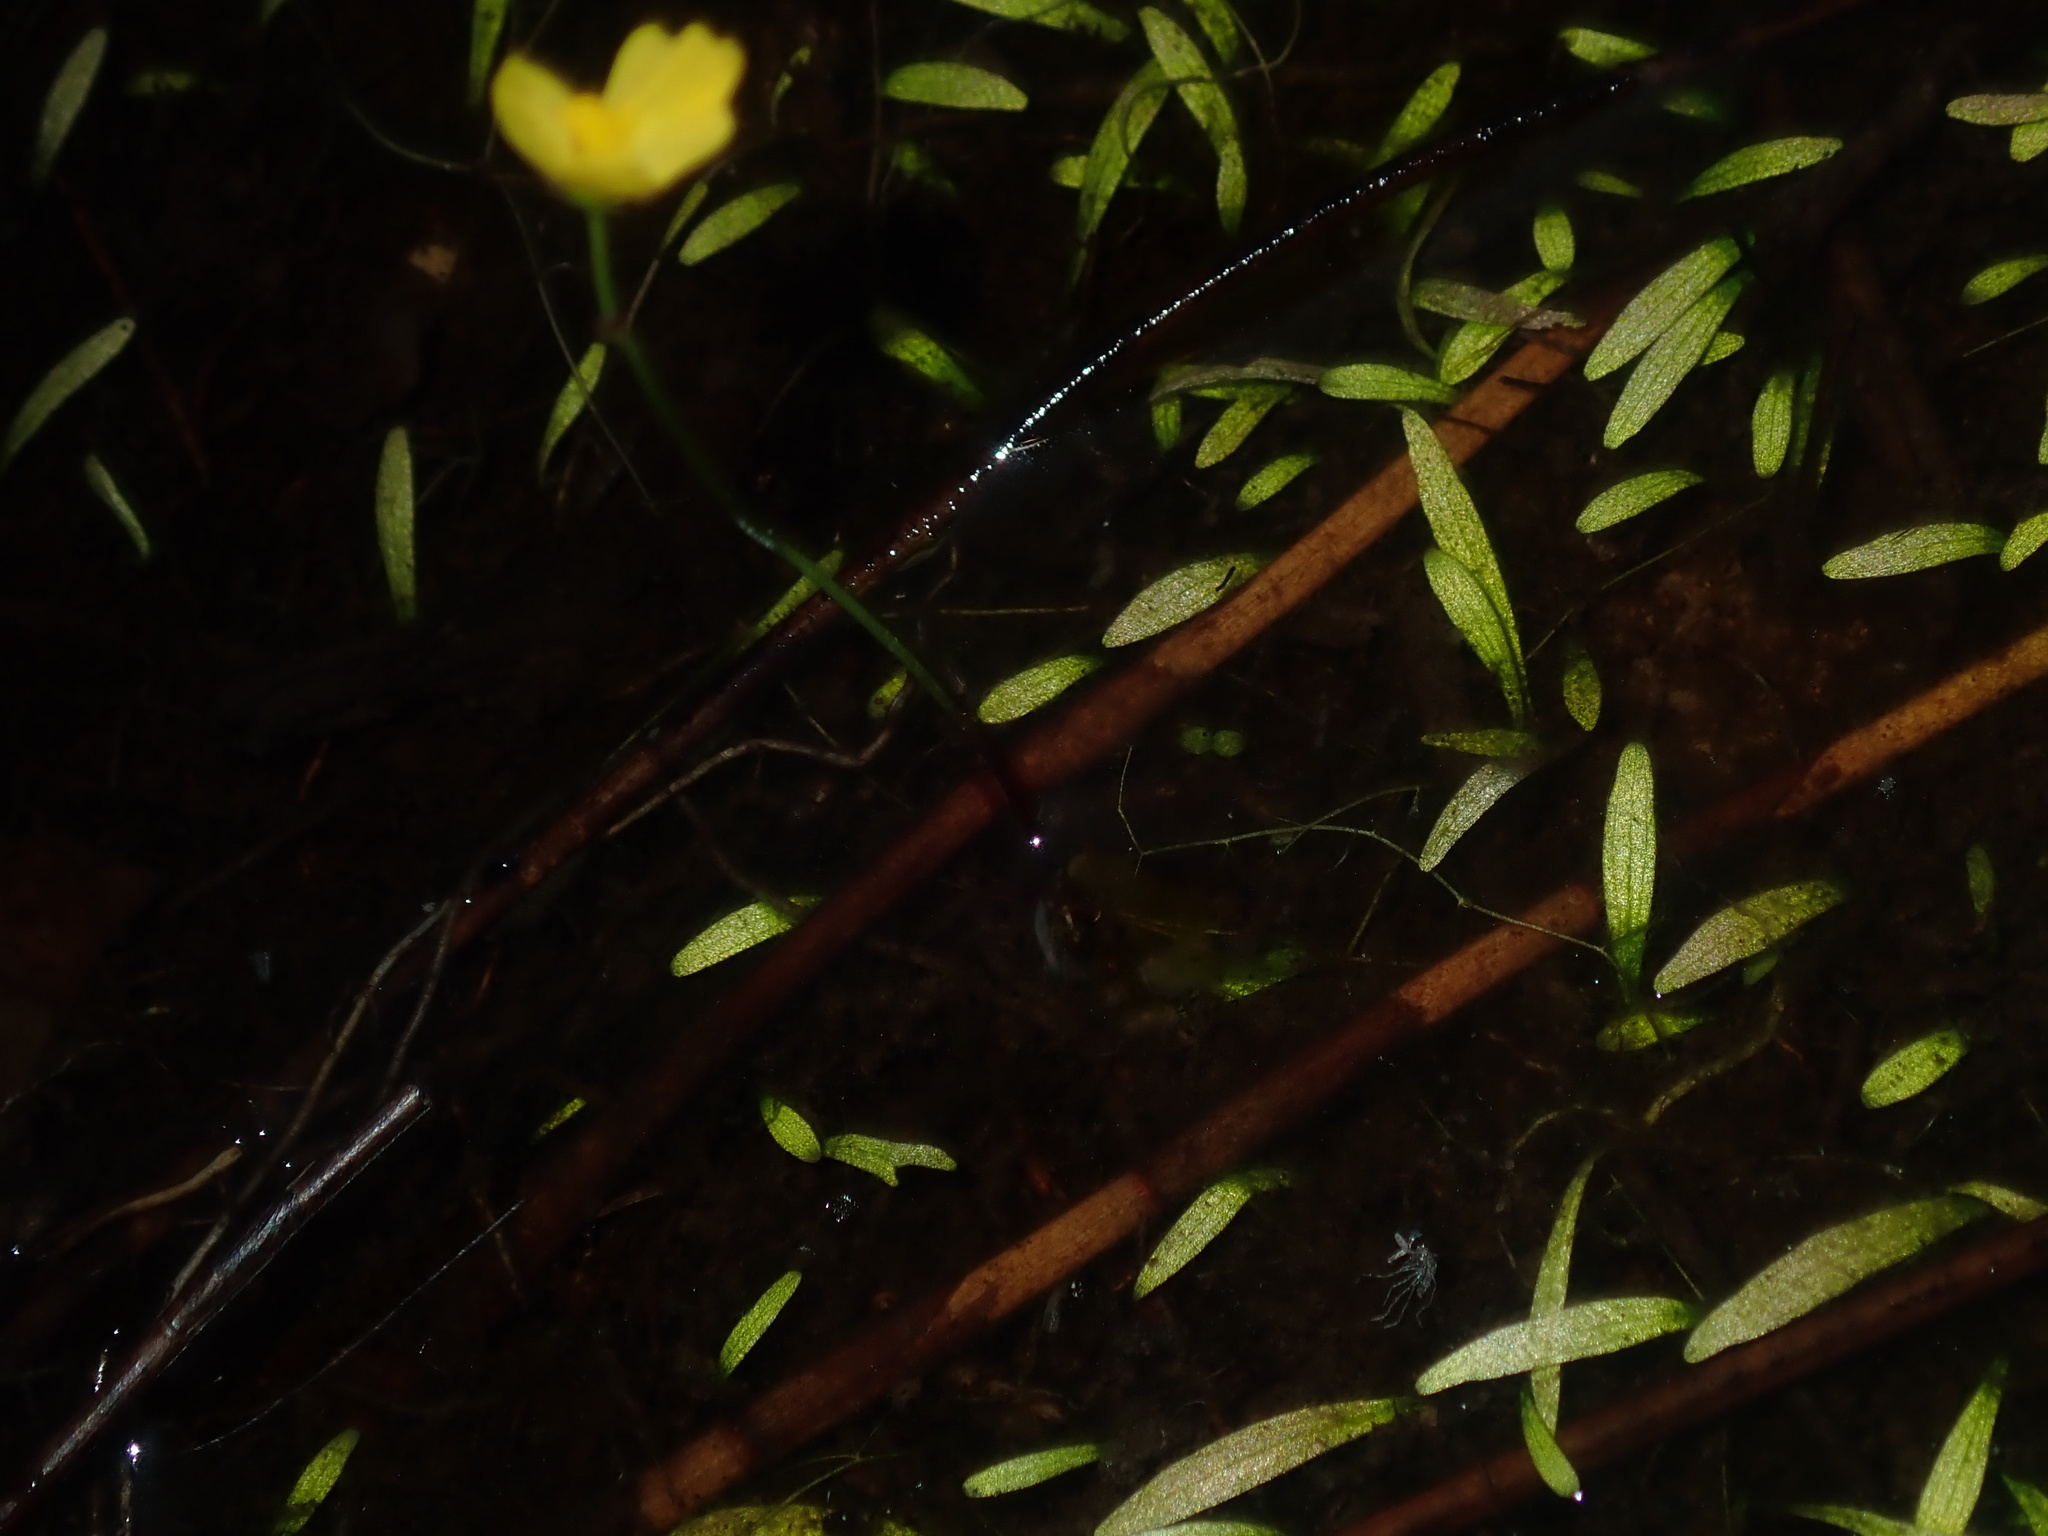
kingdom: Plantae
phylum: Tracheophyta
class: Magnoliopsida
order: Lamiales
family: Lentibulariaceae
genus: Utricularia
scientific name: Utricularia gibba
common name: Humped bladderwort
